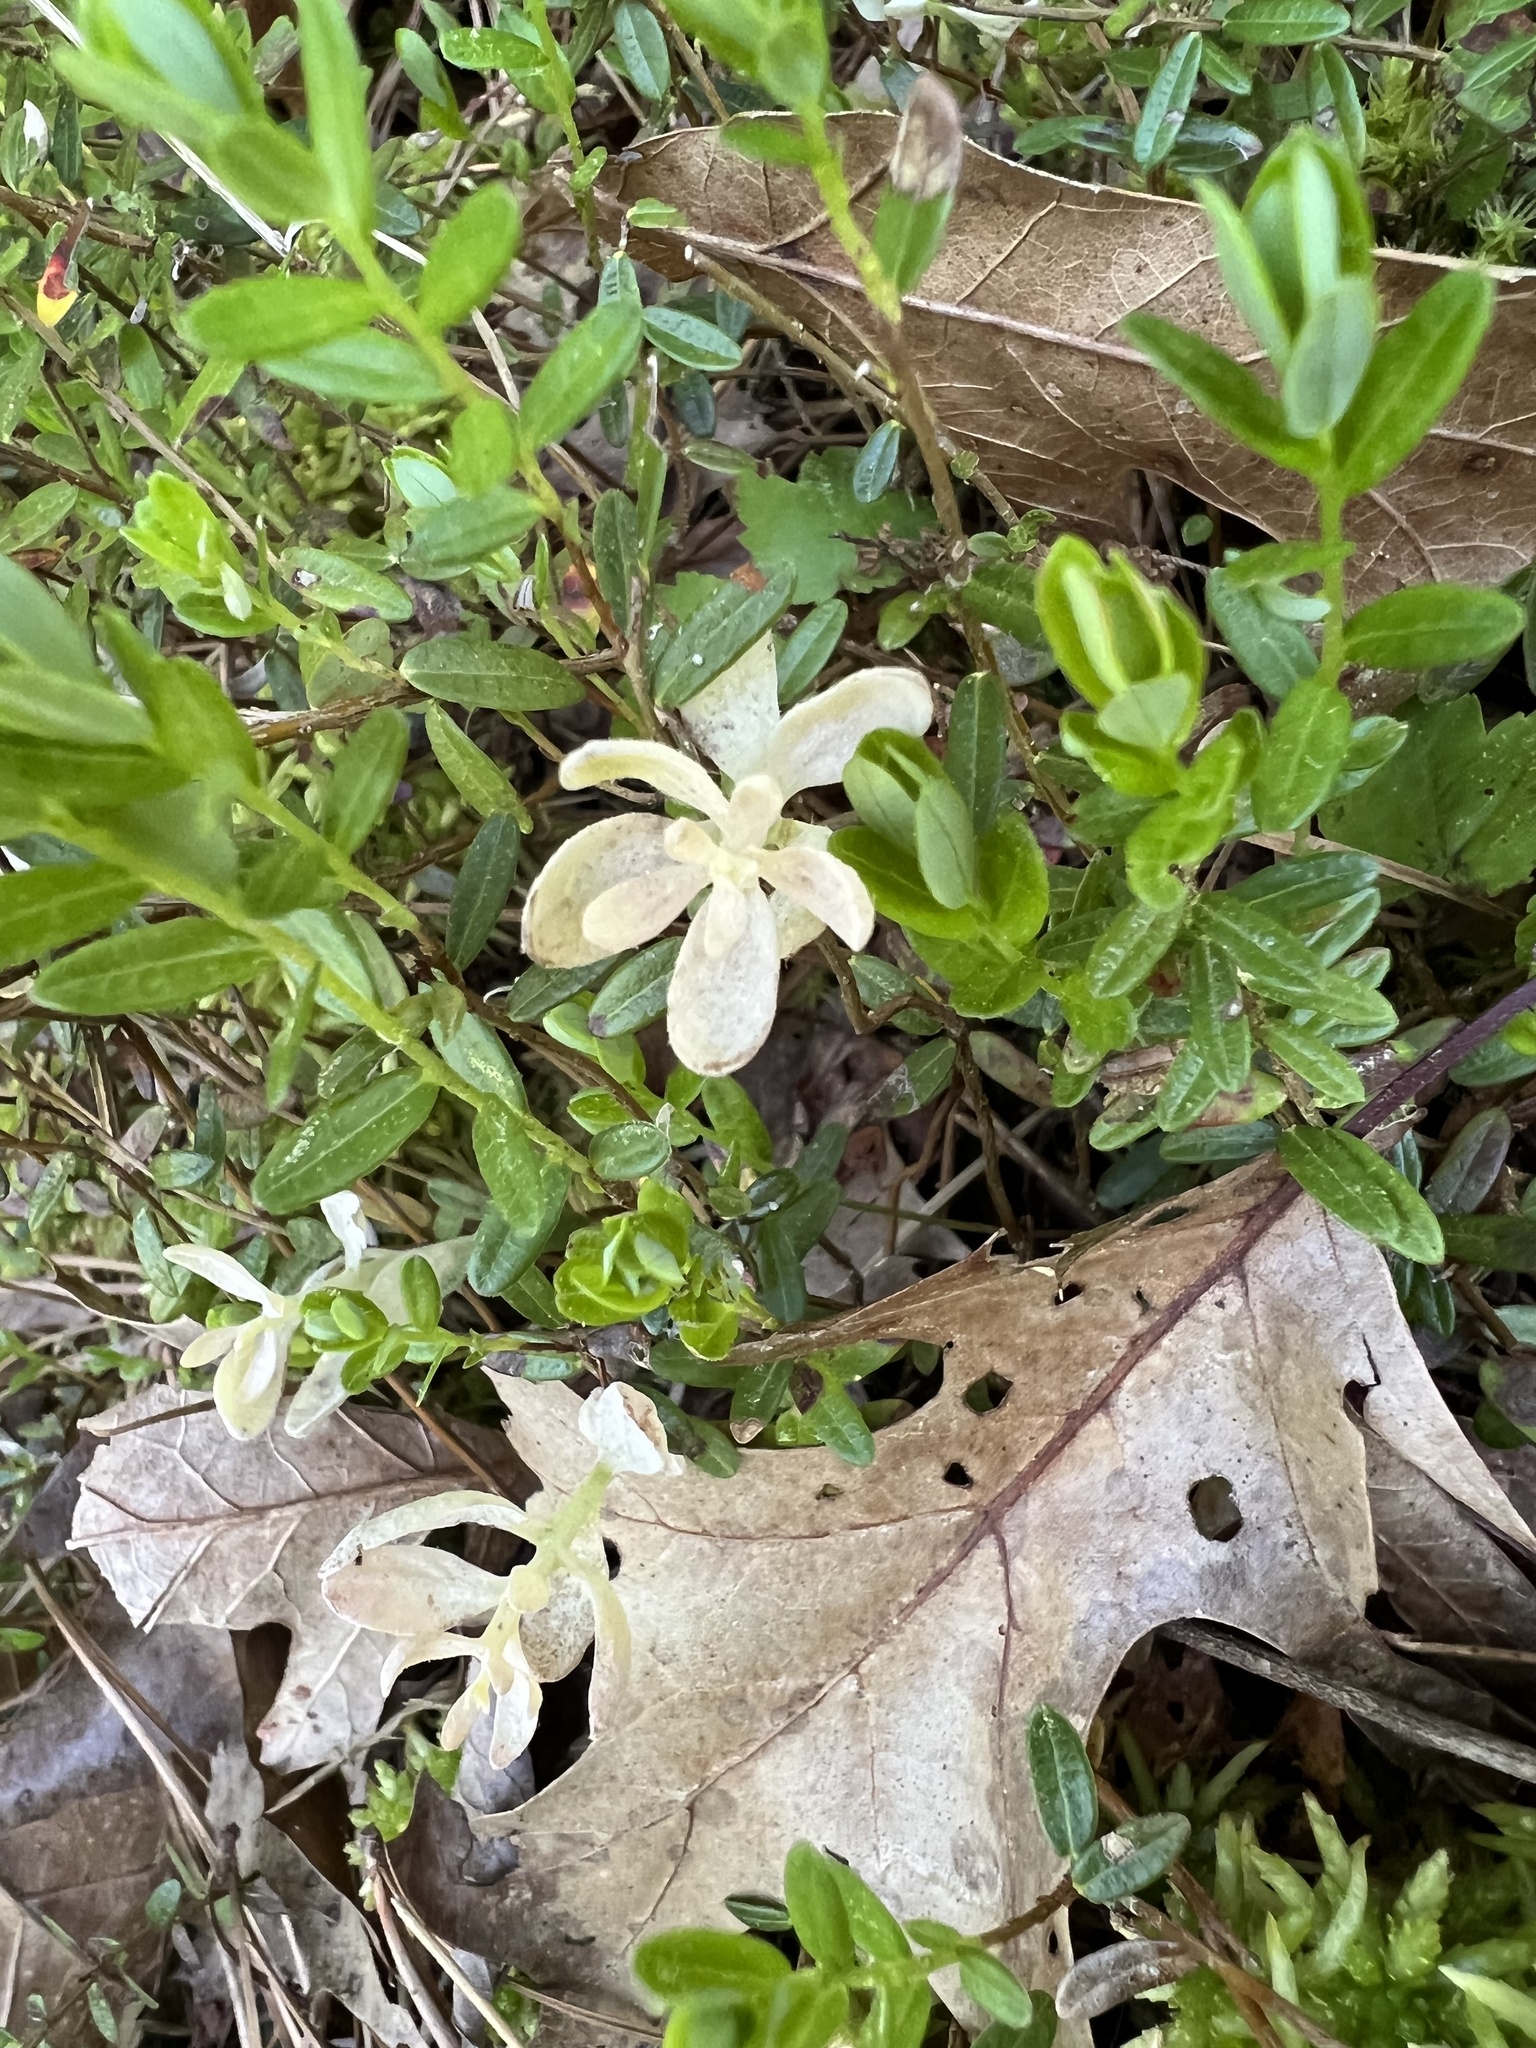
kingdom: Plantae
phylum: Tracheophyta
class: Magnoliopsida
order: Ericales
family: Ericaceae
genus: Vaccinium
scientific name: Vaccinium macrocarpon
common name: American cranberry
